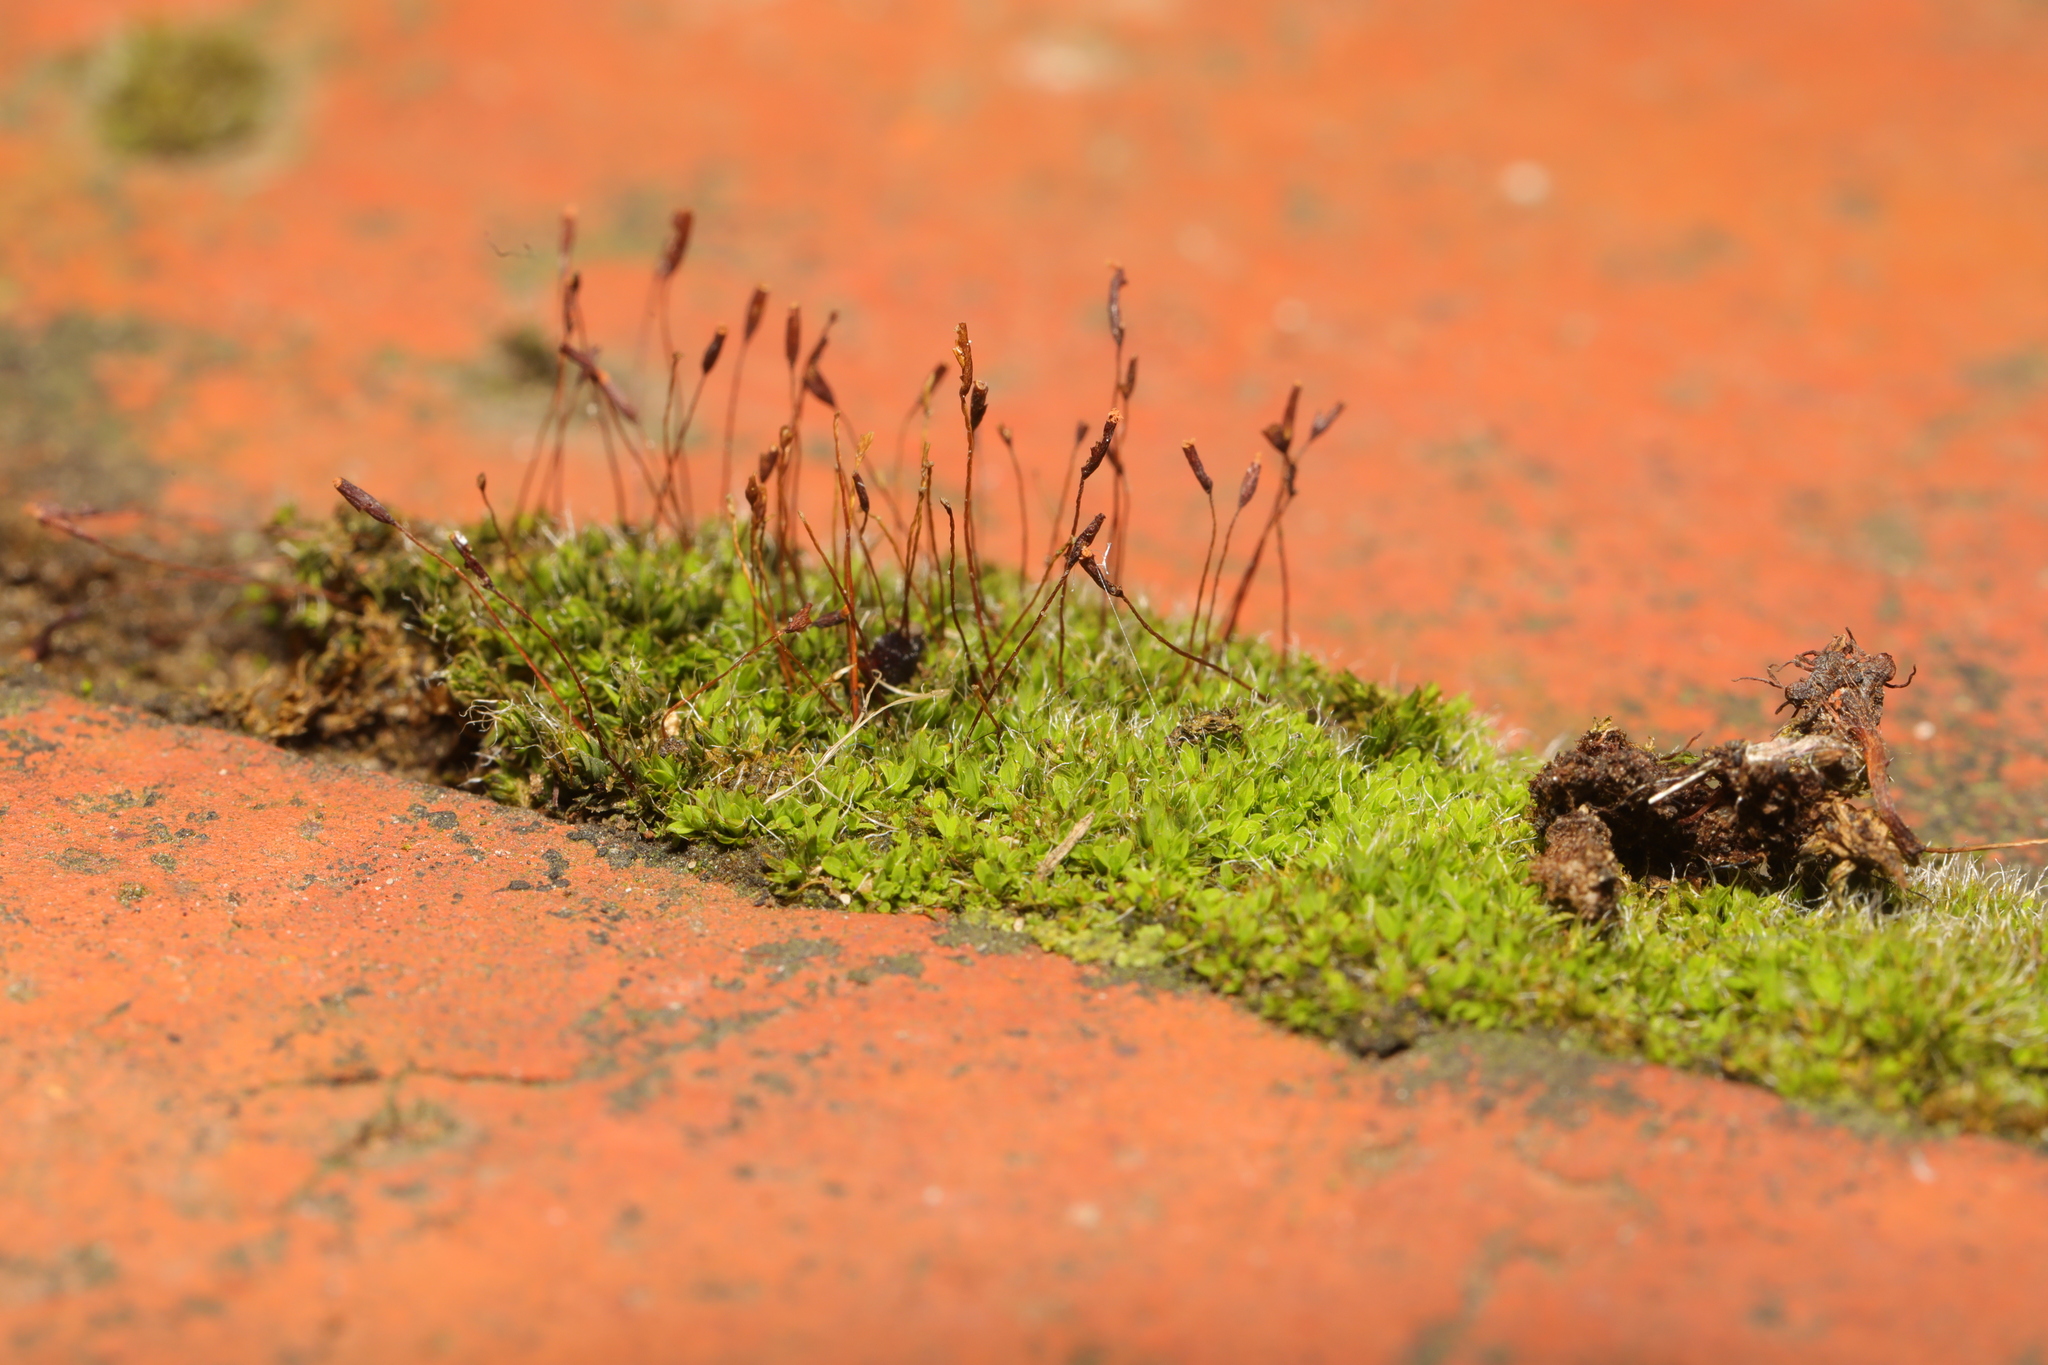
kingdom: Plantae
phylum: Bryophyta
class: Bryopsida
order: Pottiales
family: Pottiaceae
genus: Tortula
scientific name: Tortula muralis
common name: Wall screw-moss
